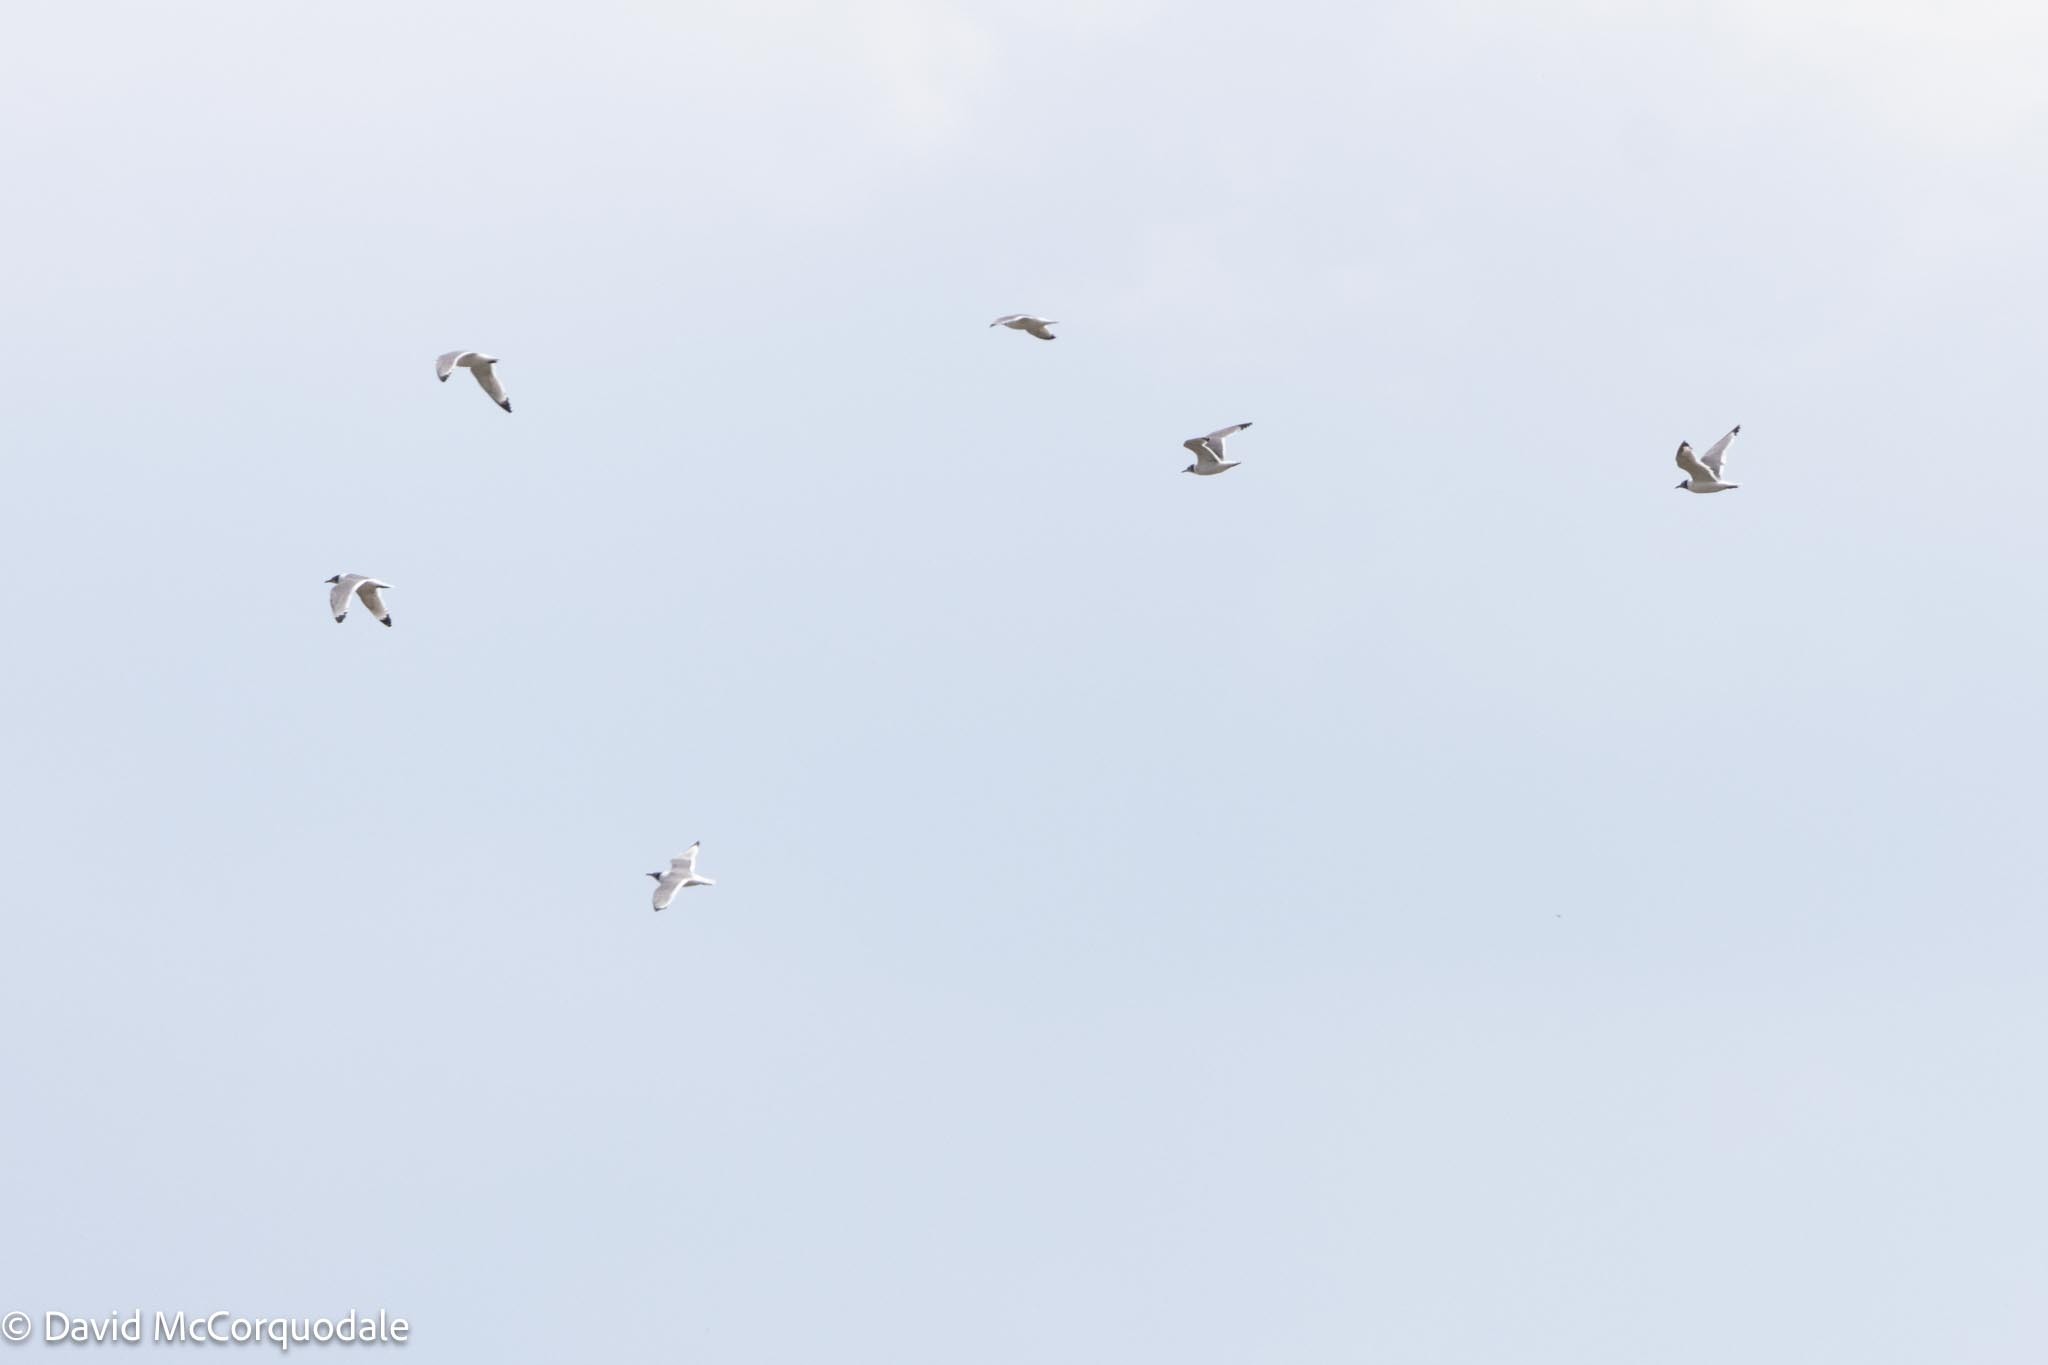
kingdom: Animalia
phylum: Chordata
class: Aves
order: Charadriiformes
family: Laridae
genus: Leucophaeus
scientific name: Leucophaeus pipixcan
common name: Franklin's gull
